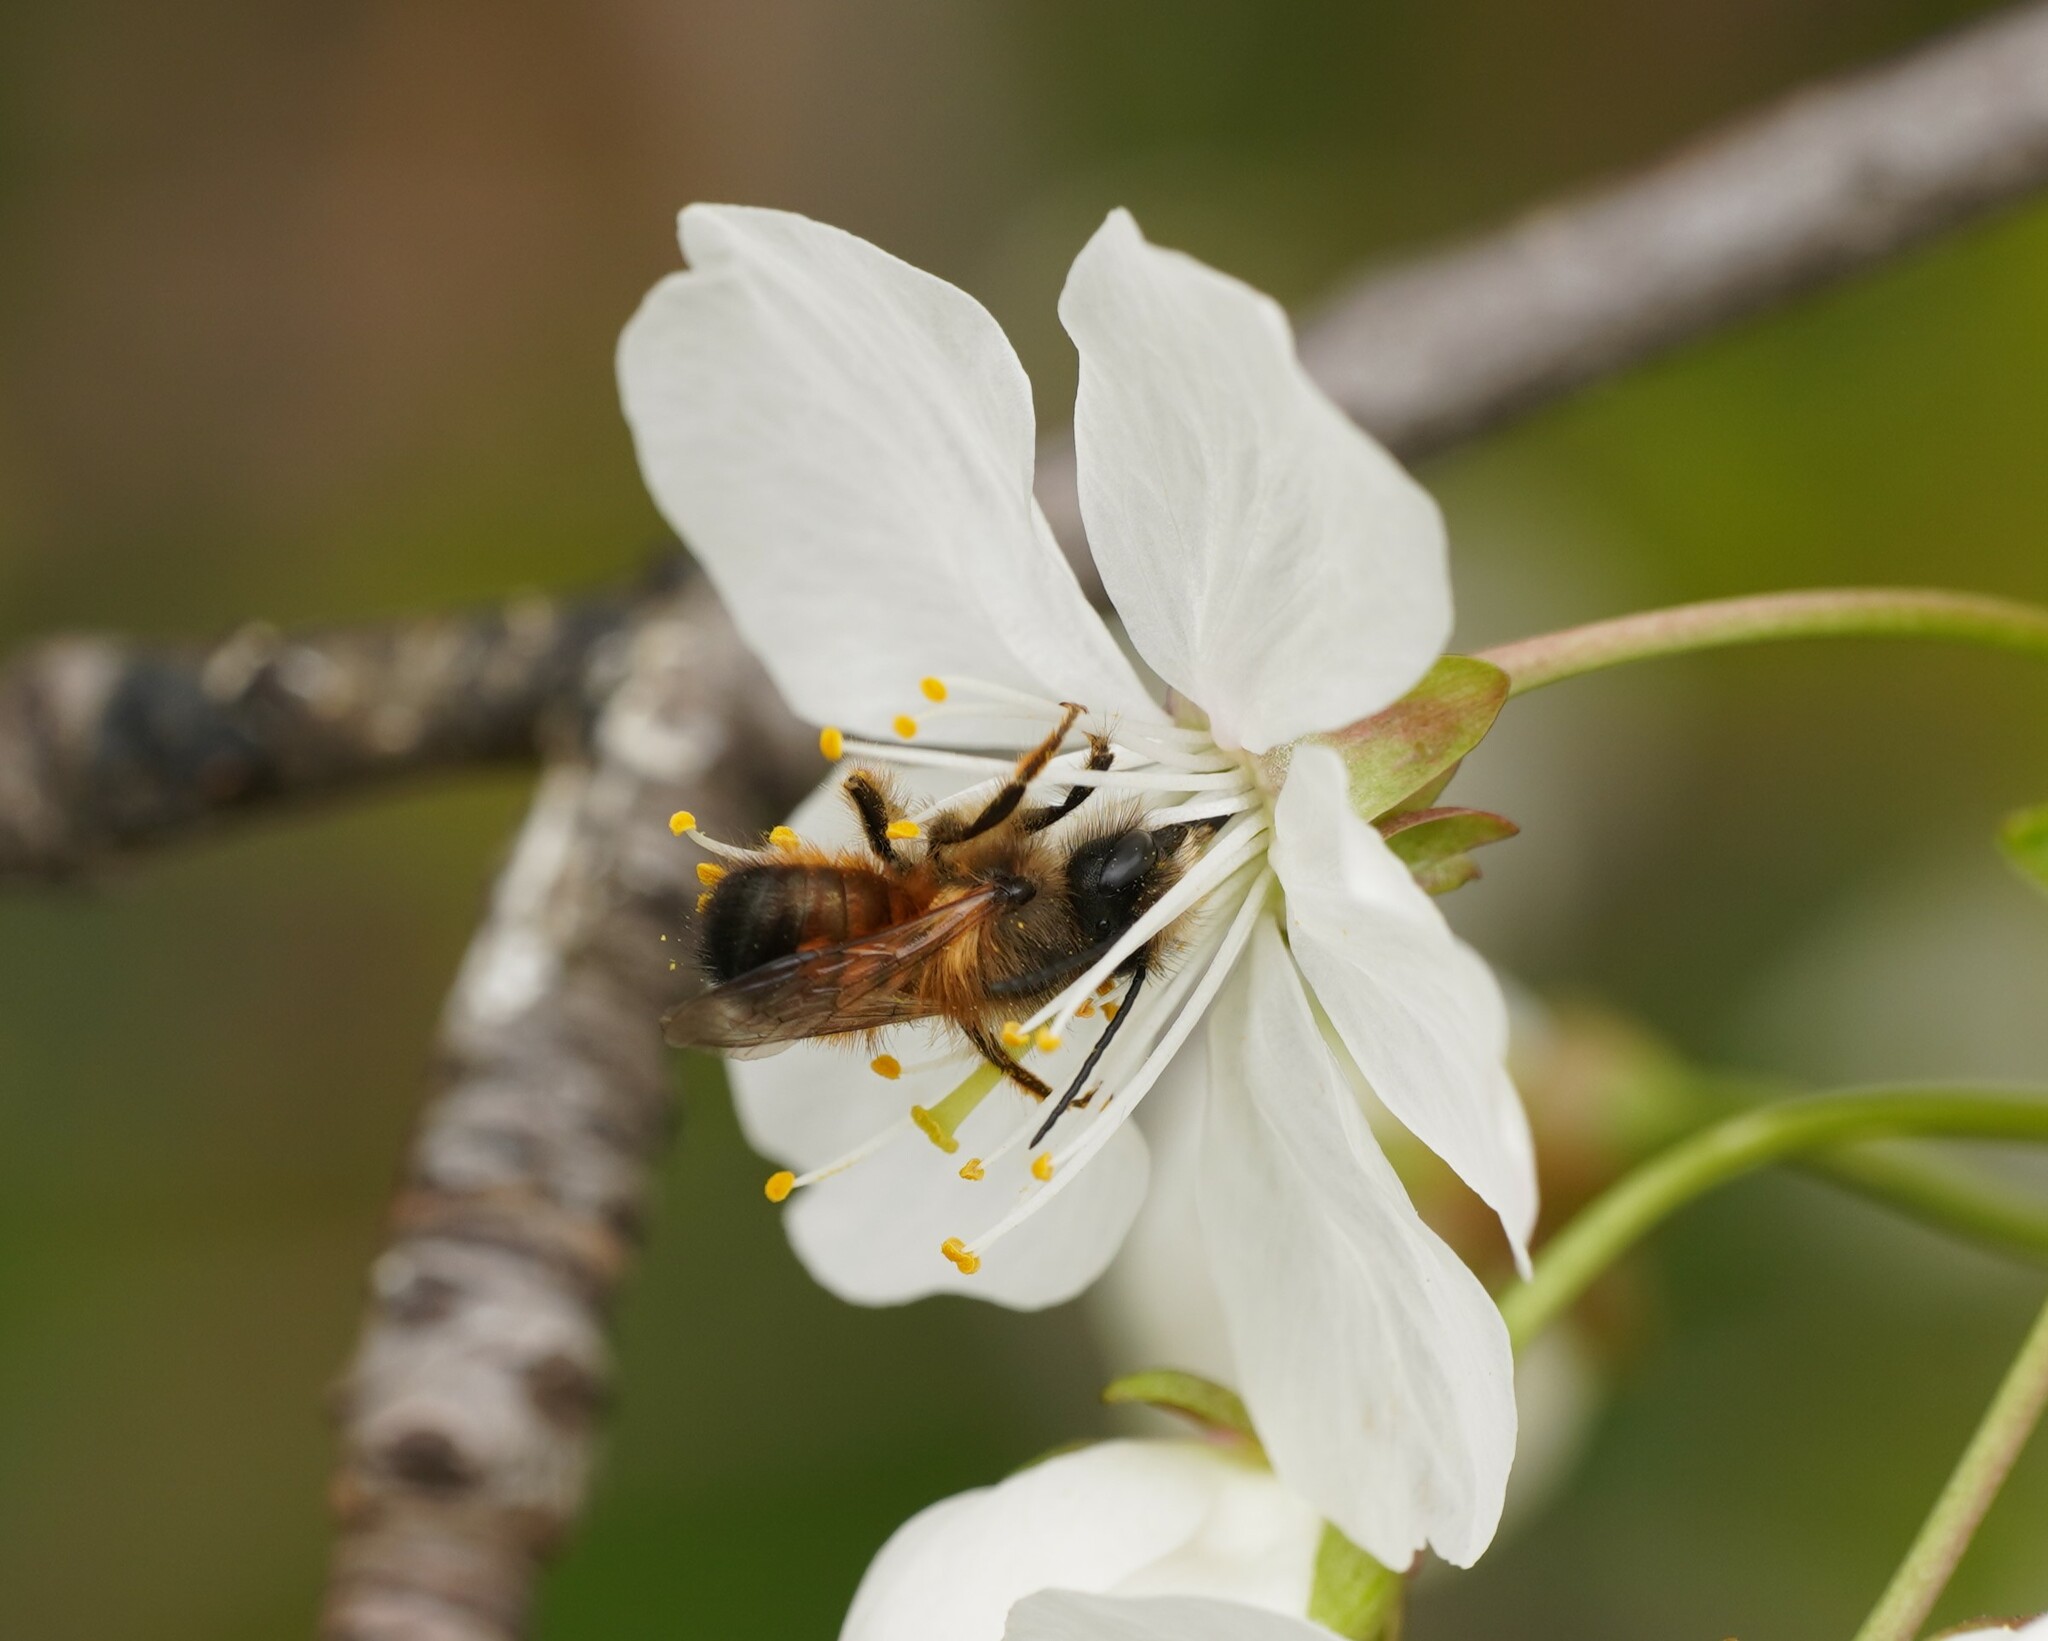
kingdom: Animalia
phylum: Arthropoda
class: Insecta
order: Hymenoptera
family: Megachilidae
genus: Osmia
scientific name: Osmia bicornis
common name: Red mason bee
